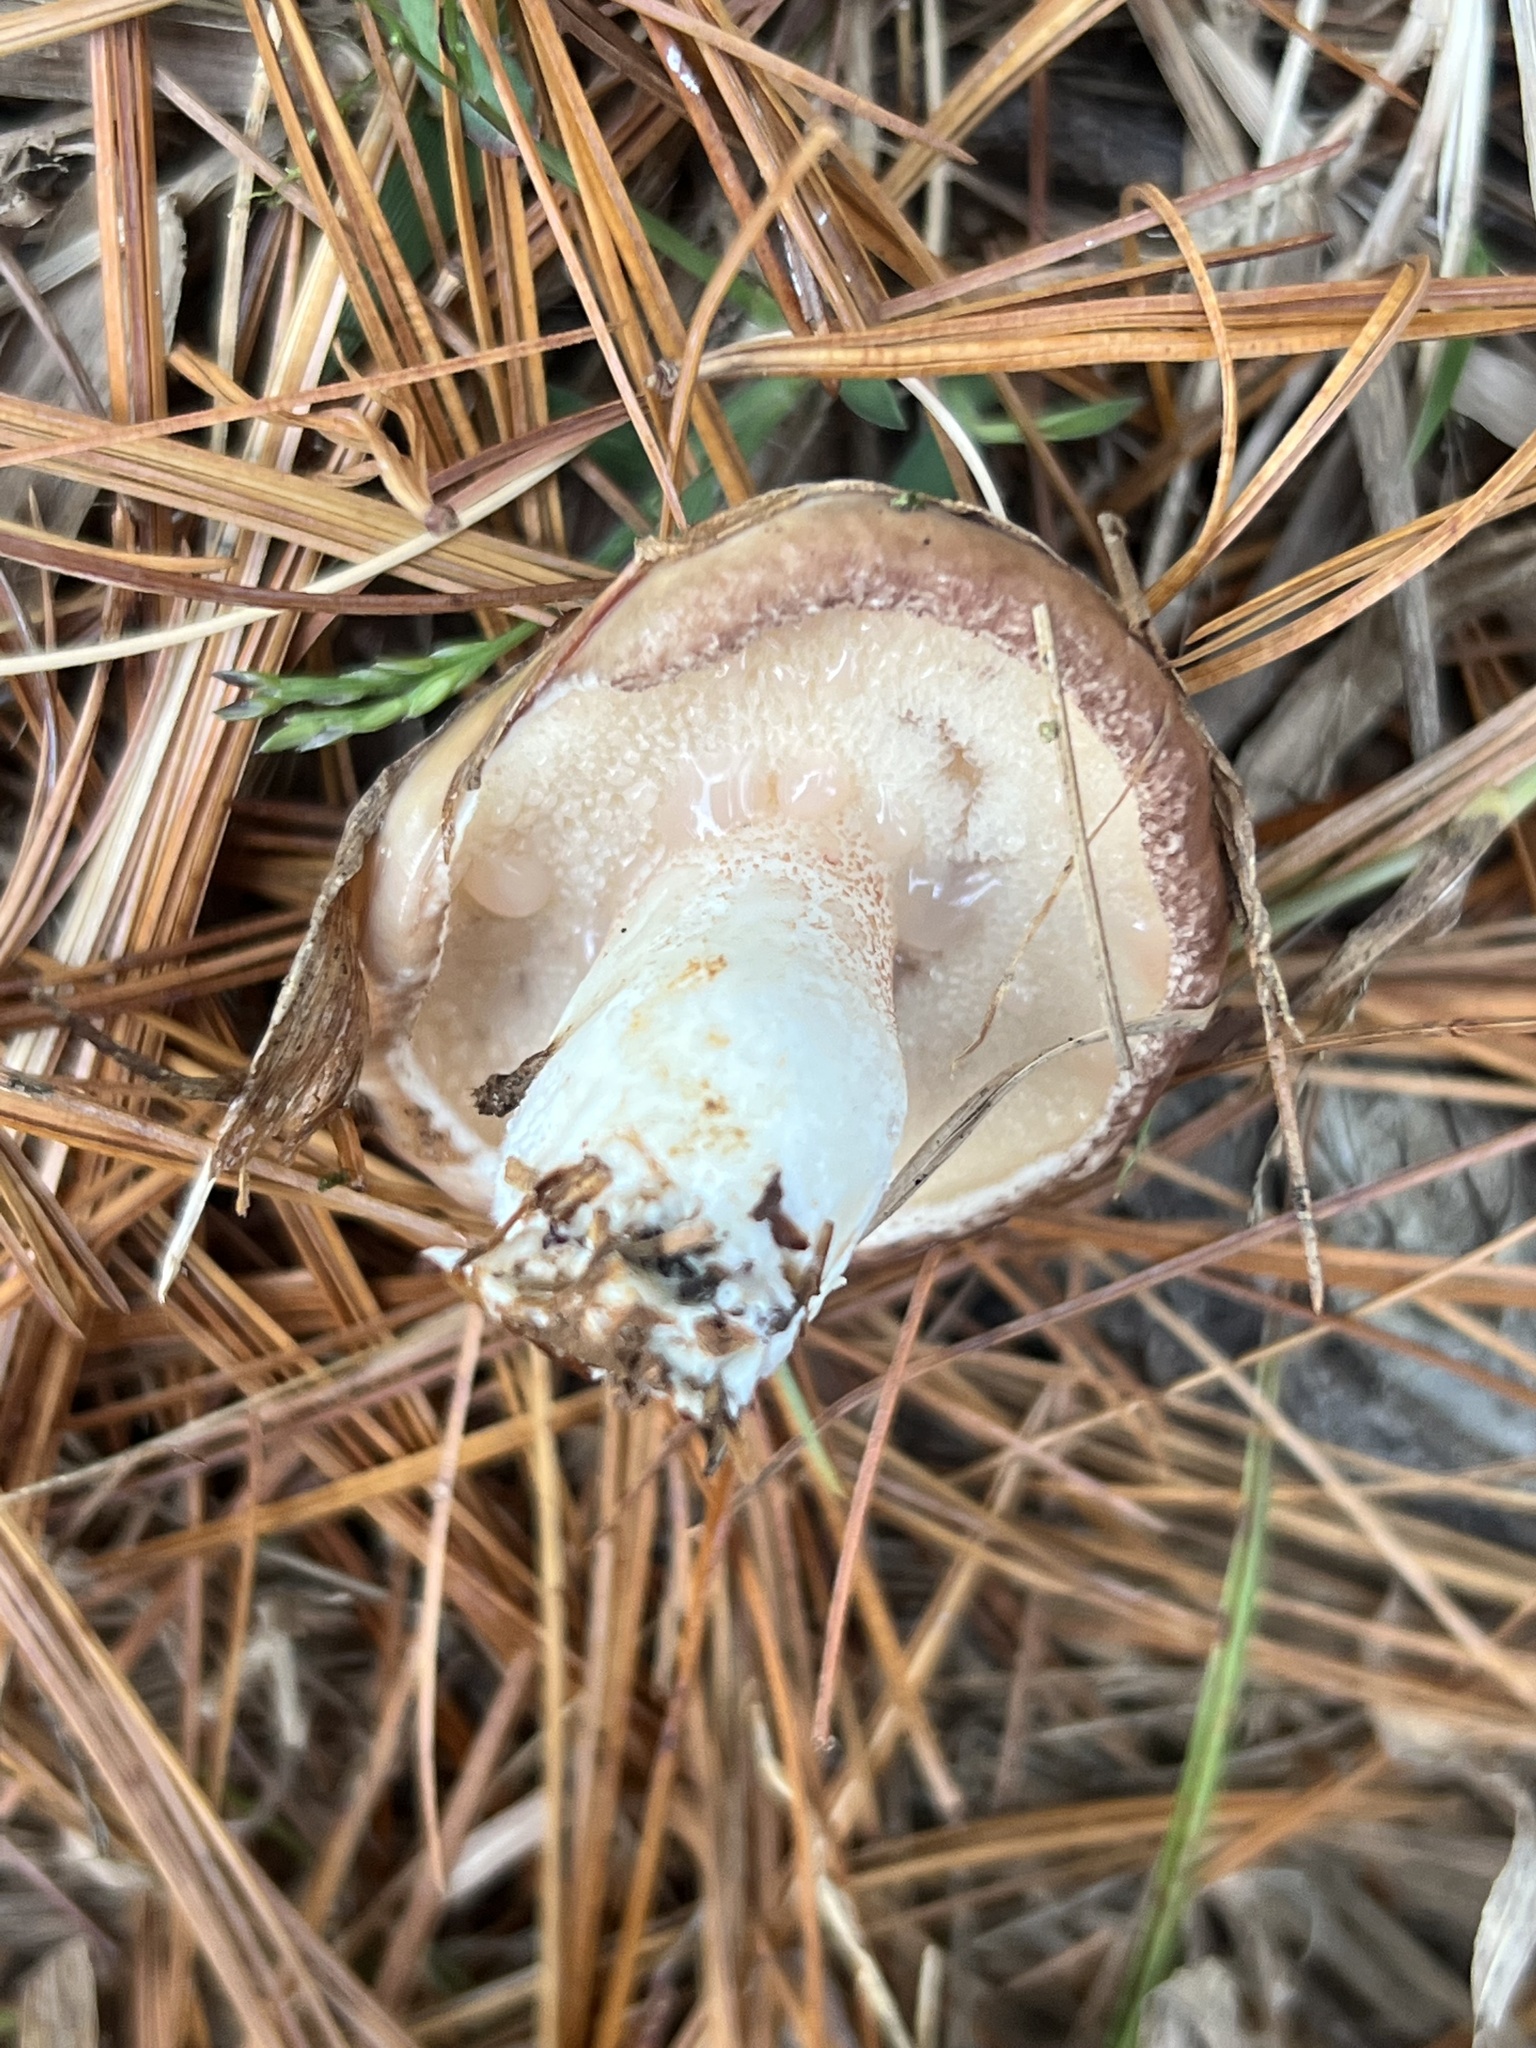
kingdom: Fungi
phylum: Basidiomycota
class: Agaricomycetes
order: Boletales
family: Suillaceae
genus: Fuscoboletinus
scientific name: Fuscoboletinus weaverae
